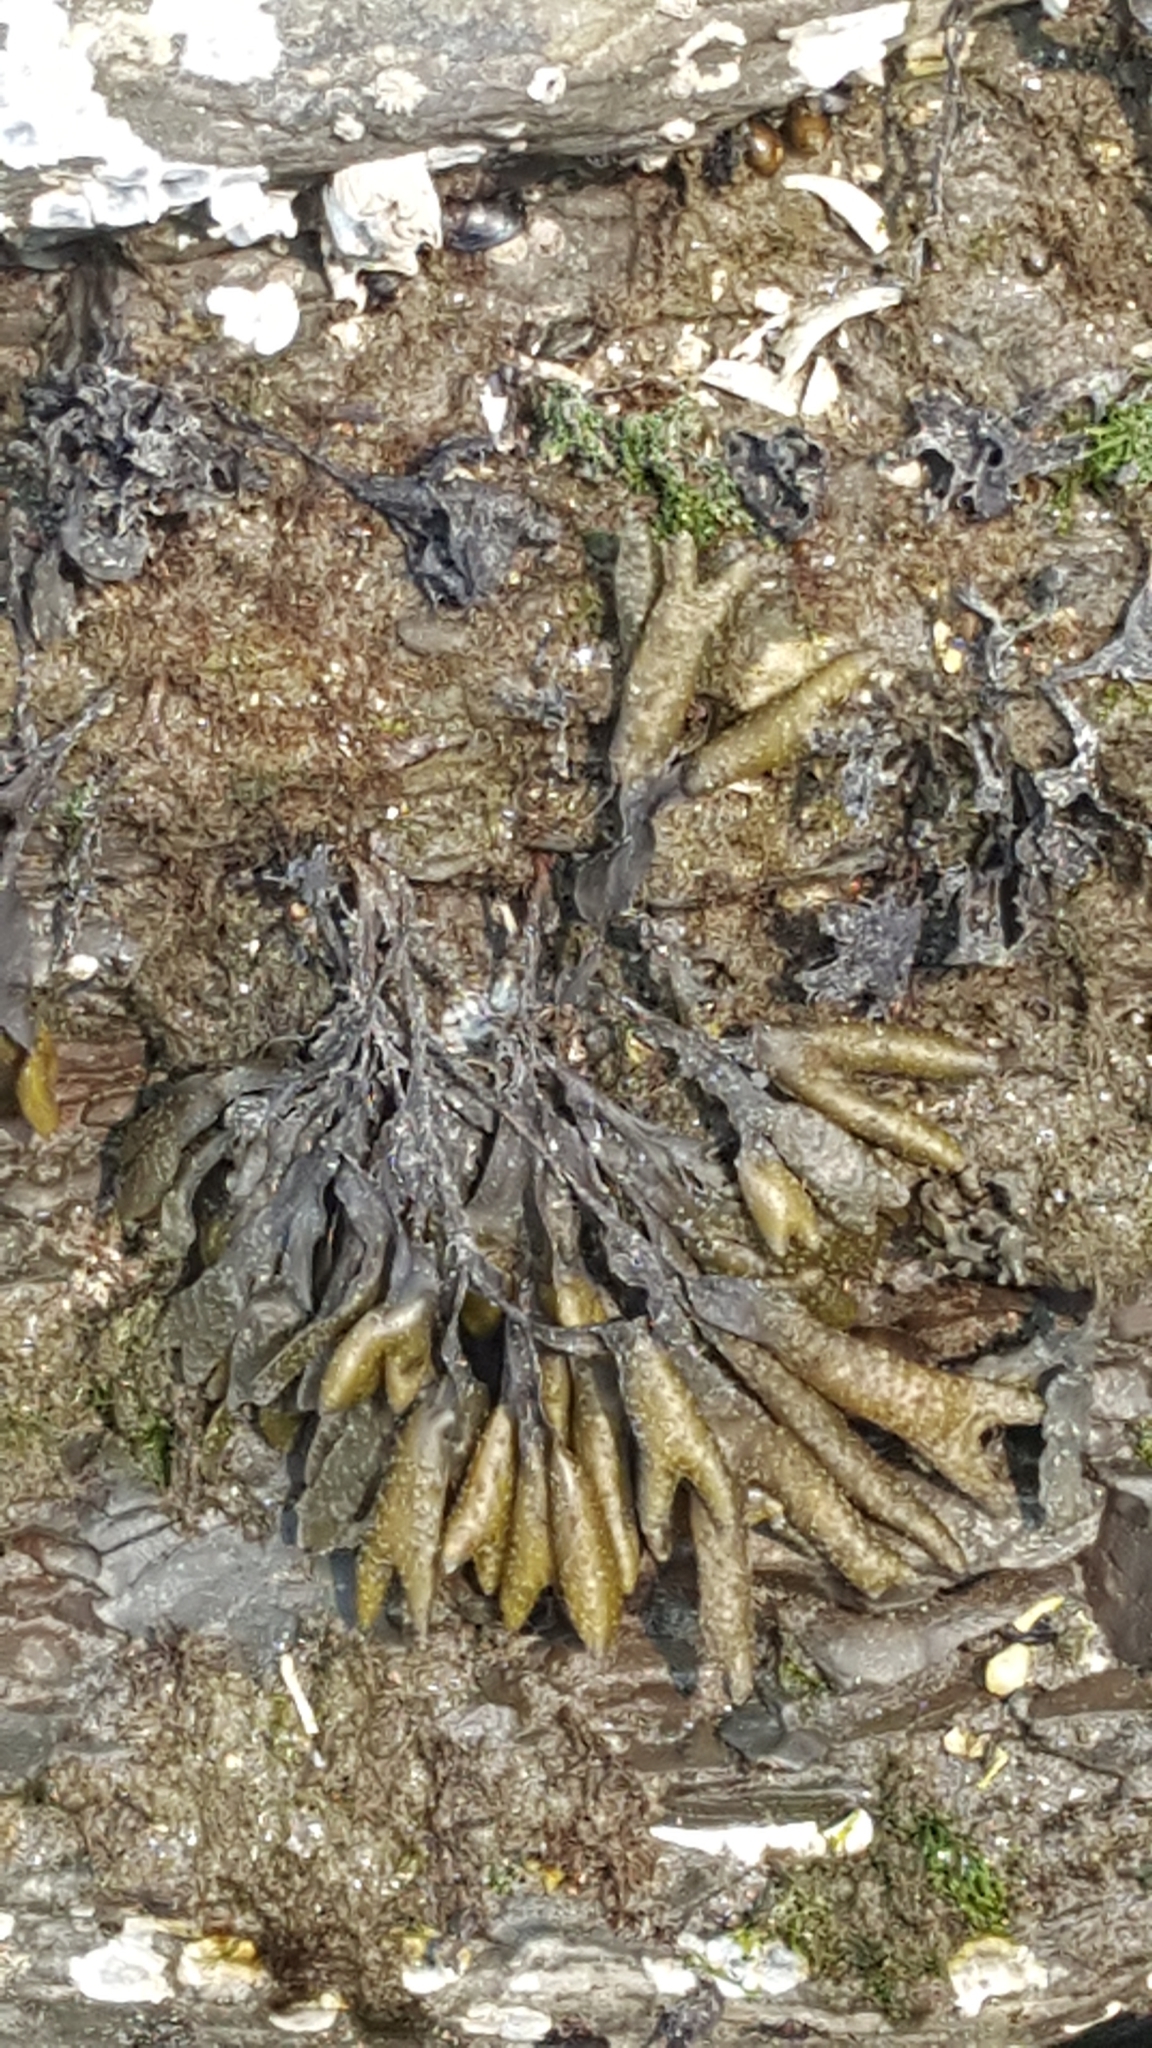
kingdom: Chromista
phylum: Ochrophyta
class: Phaeophyceae
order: Fucales
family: Fucaceae
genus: Fucus
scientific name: Fucus distichus
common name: Rockweed
